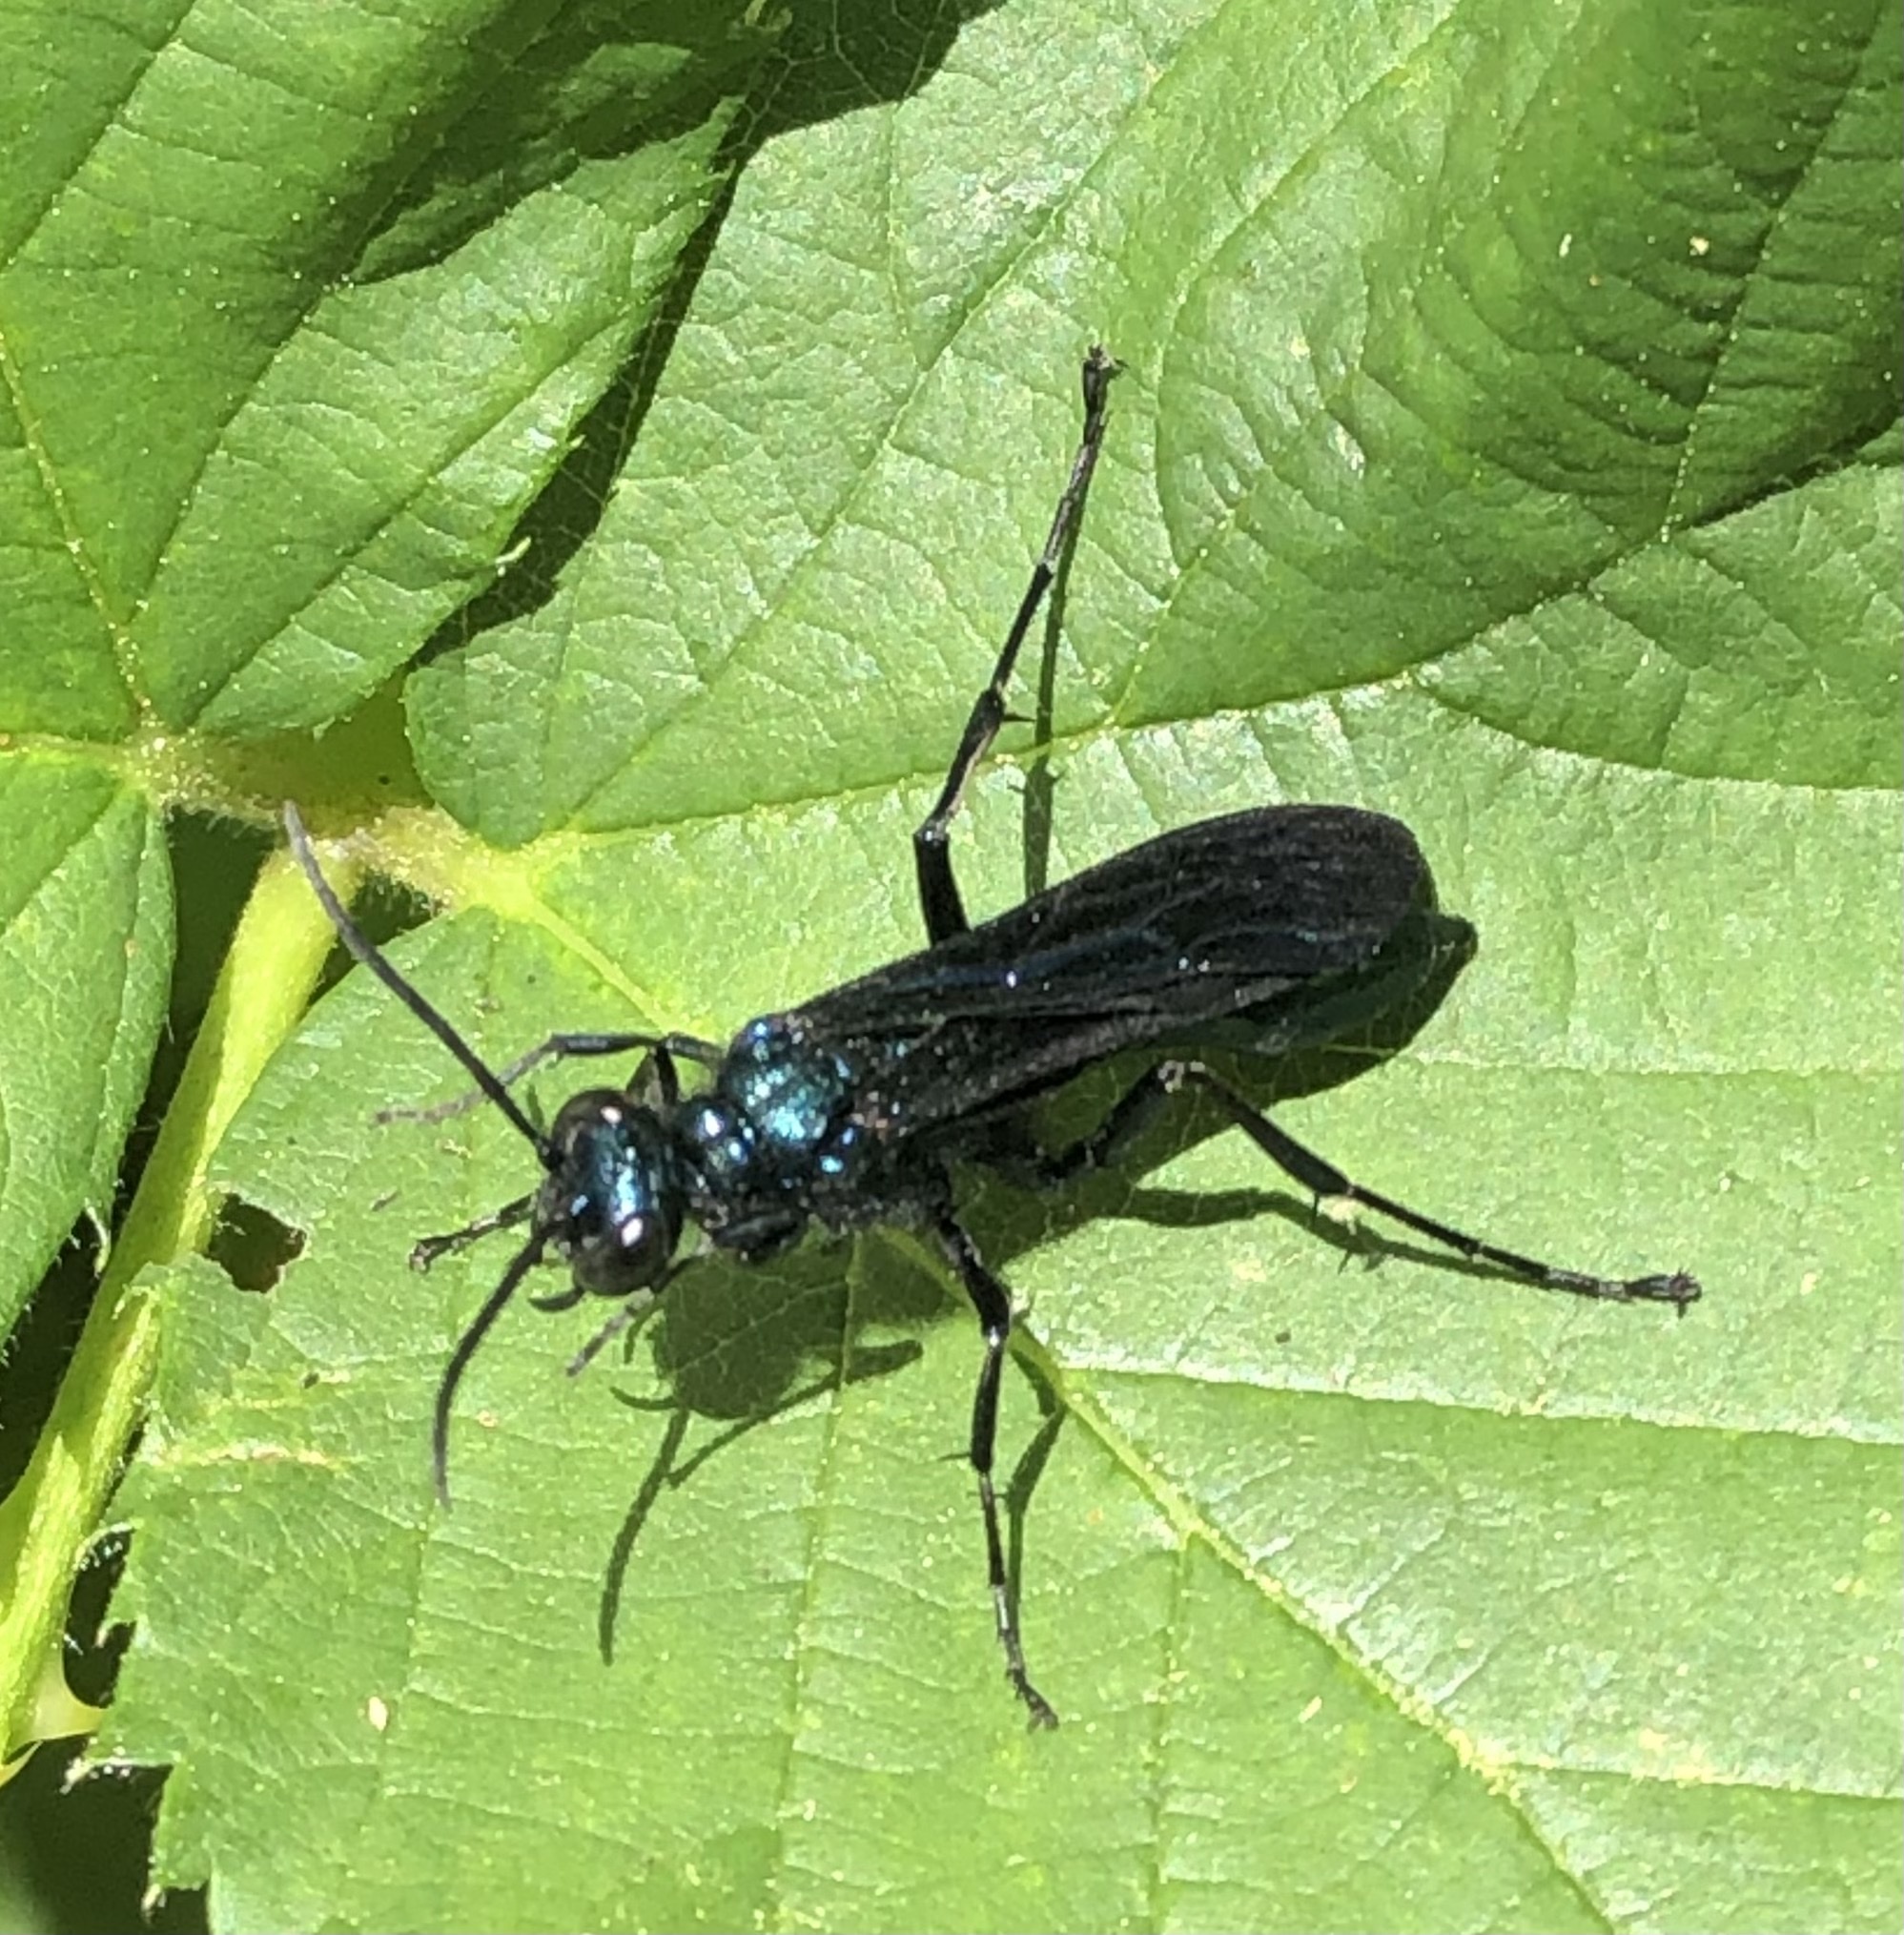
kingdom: Animalia
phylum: Arthropoda
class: Insecta
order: Hymenoptera
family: Sphecidae
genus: Chalybion
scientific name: Chalybion californicum
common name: Mud dauber
